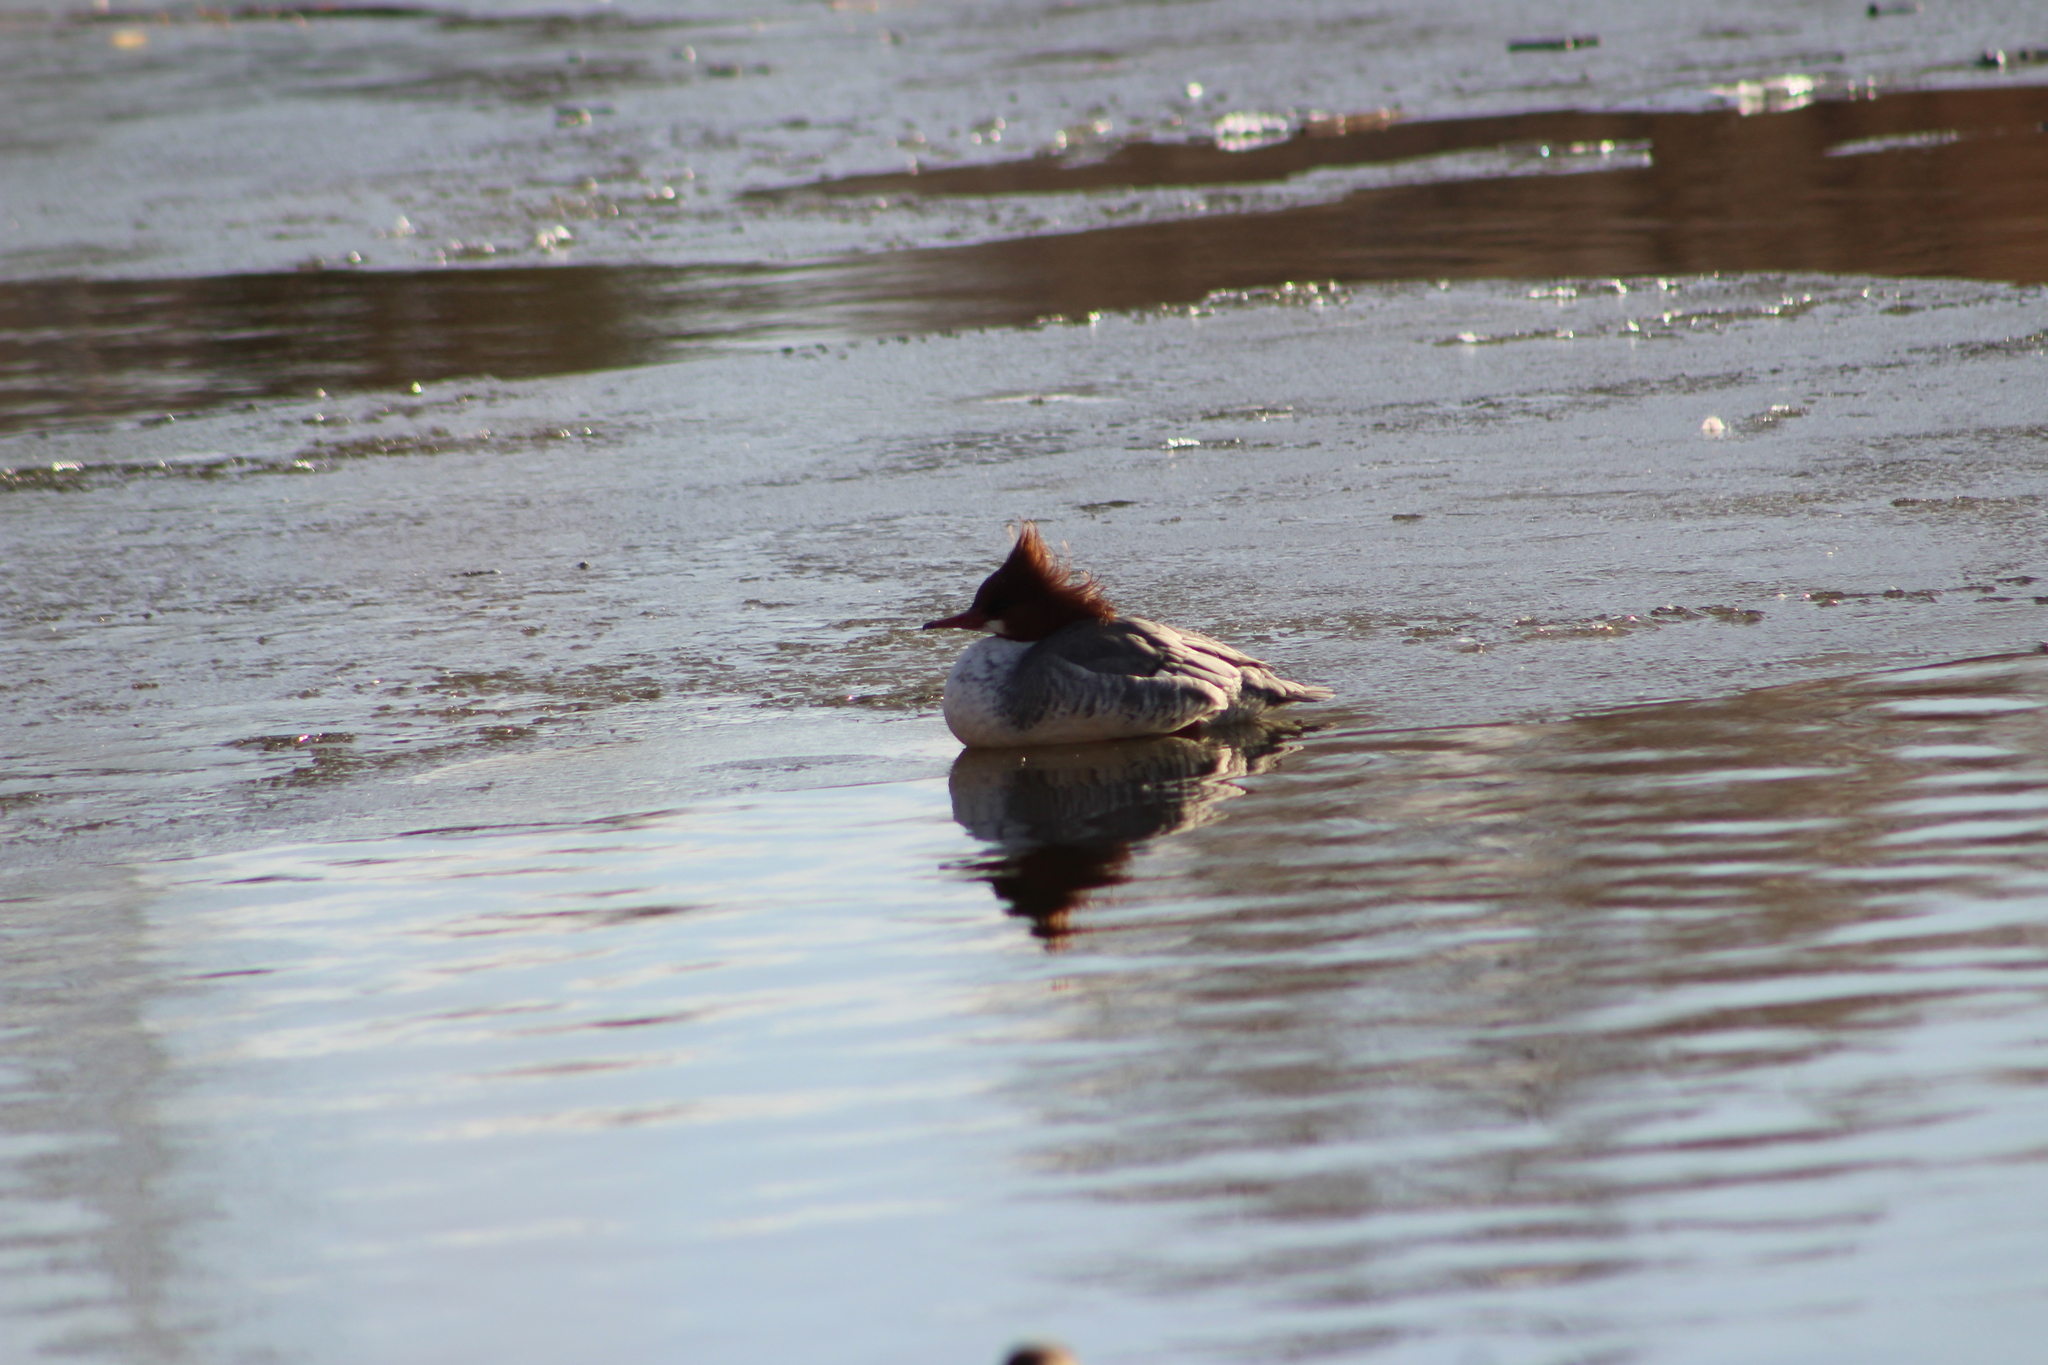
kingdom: Animalia
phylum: Chordata
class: Aves
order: Anseriformes
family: Anatidae
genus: Mergus
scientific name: Mergus merganser
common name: Common merganser
